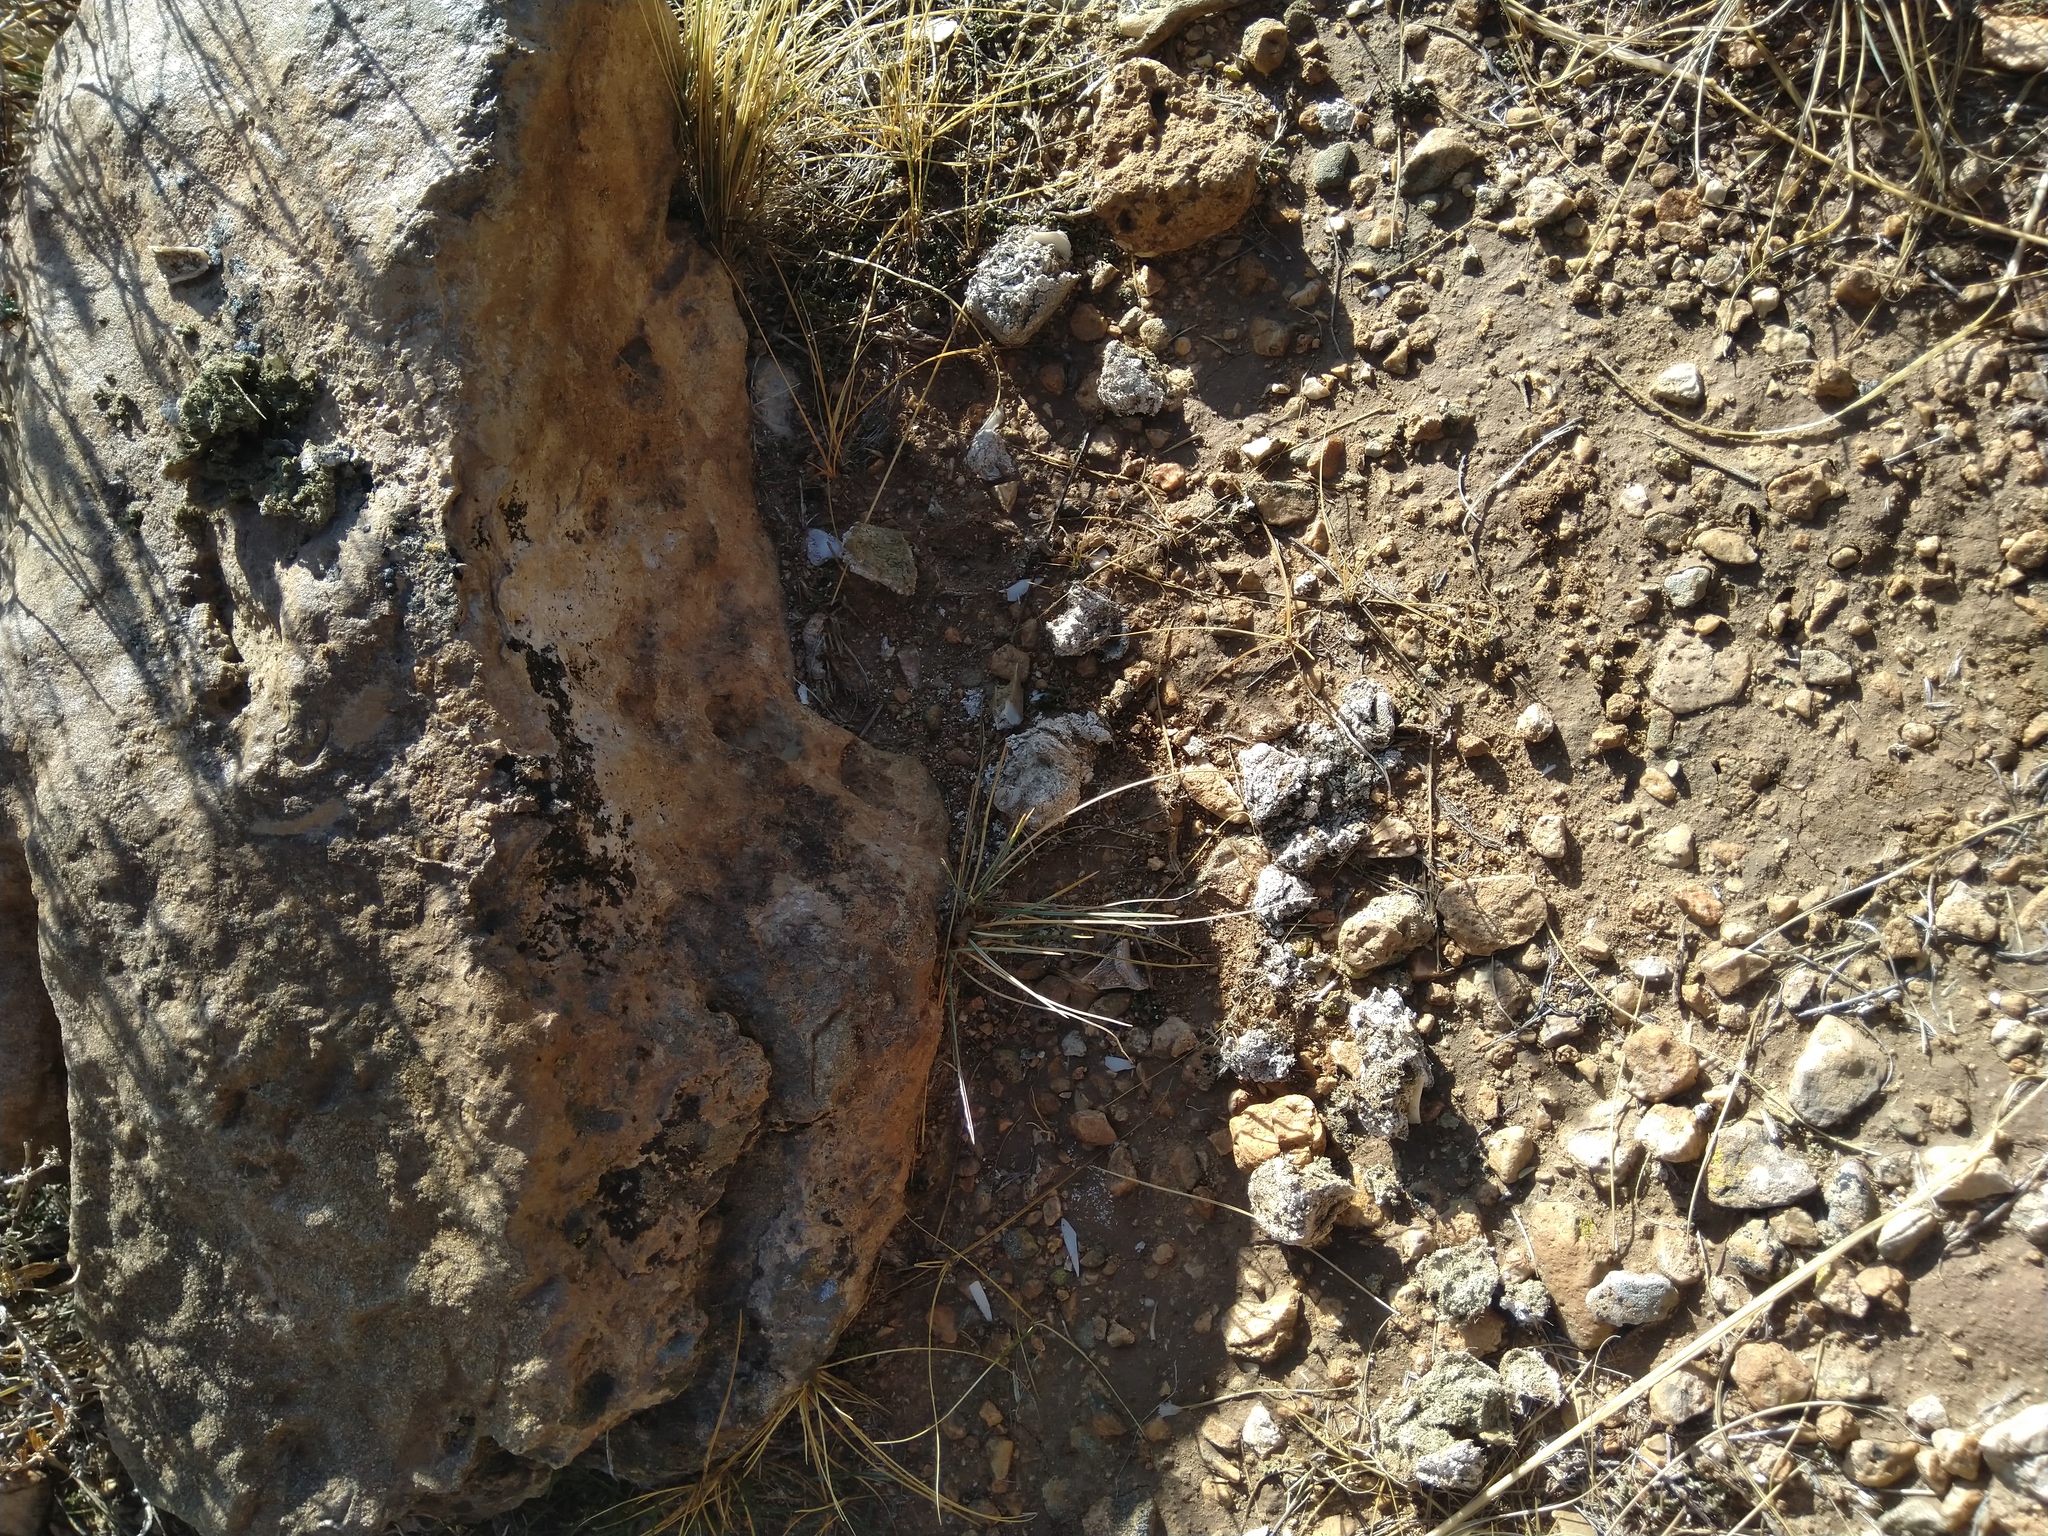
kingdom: Animalia
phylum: Chordata
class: Mammalia
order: Carnivora
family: Felidae
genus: Panthera
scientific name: Panthera pardus
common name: Leopard
